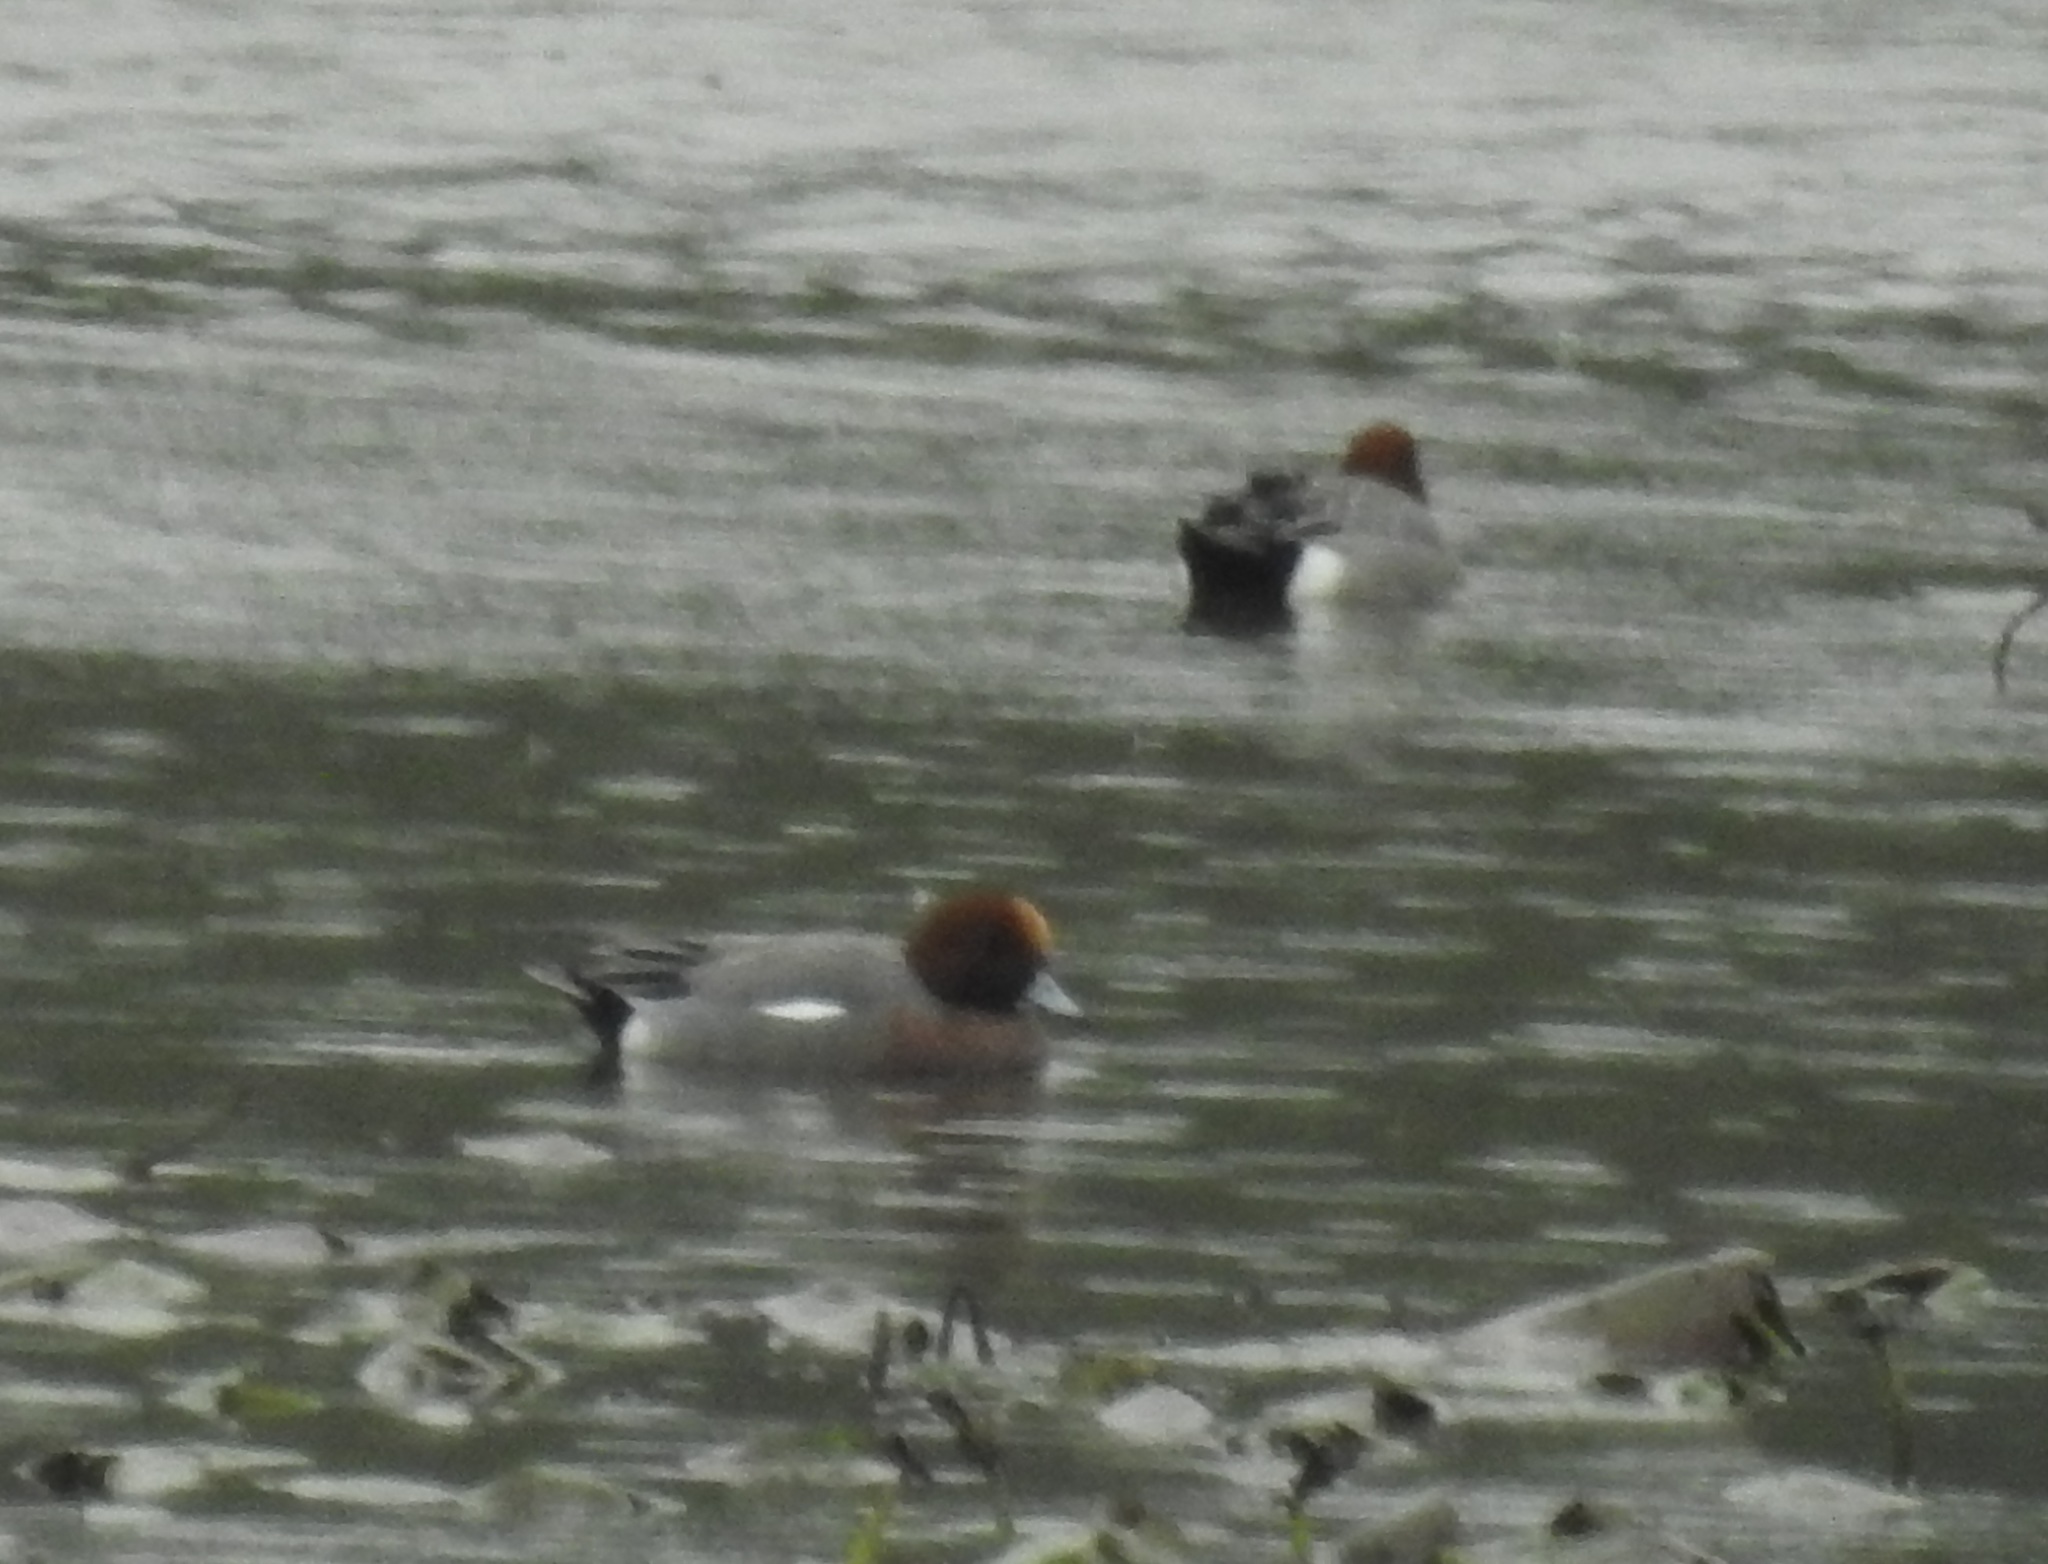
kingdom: Animalia
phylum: Chordata
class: Aves
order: Anseriformes
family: Anatidae
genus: Mareca
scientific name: Mareca penelope
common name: Eurasian wigeon
